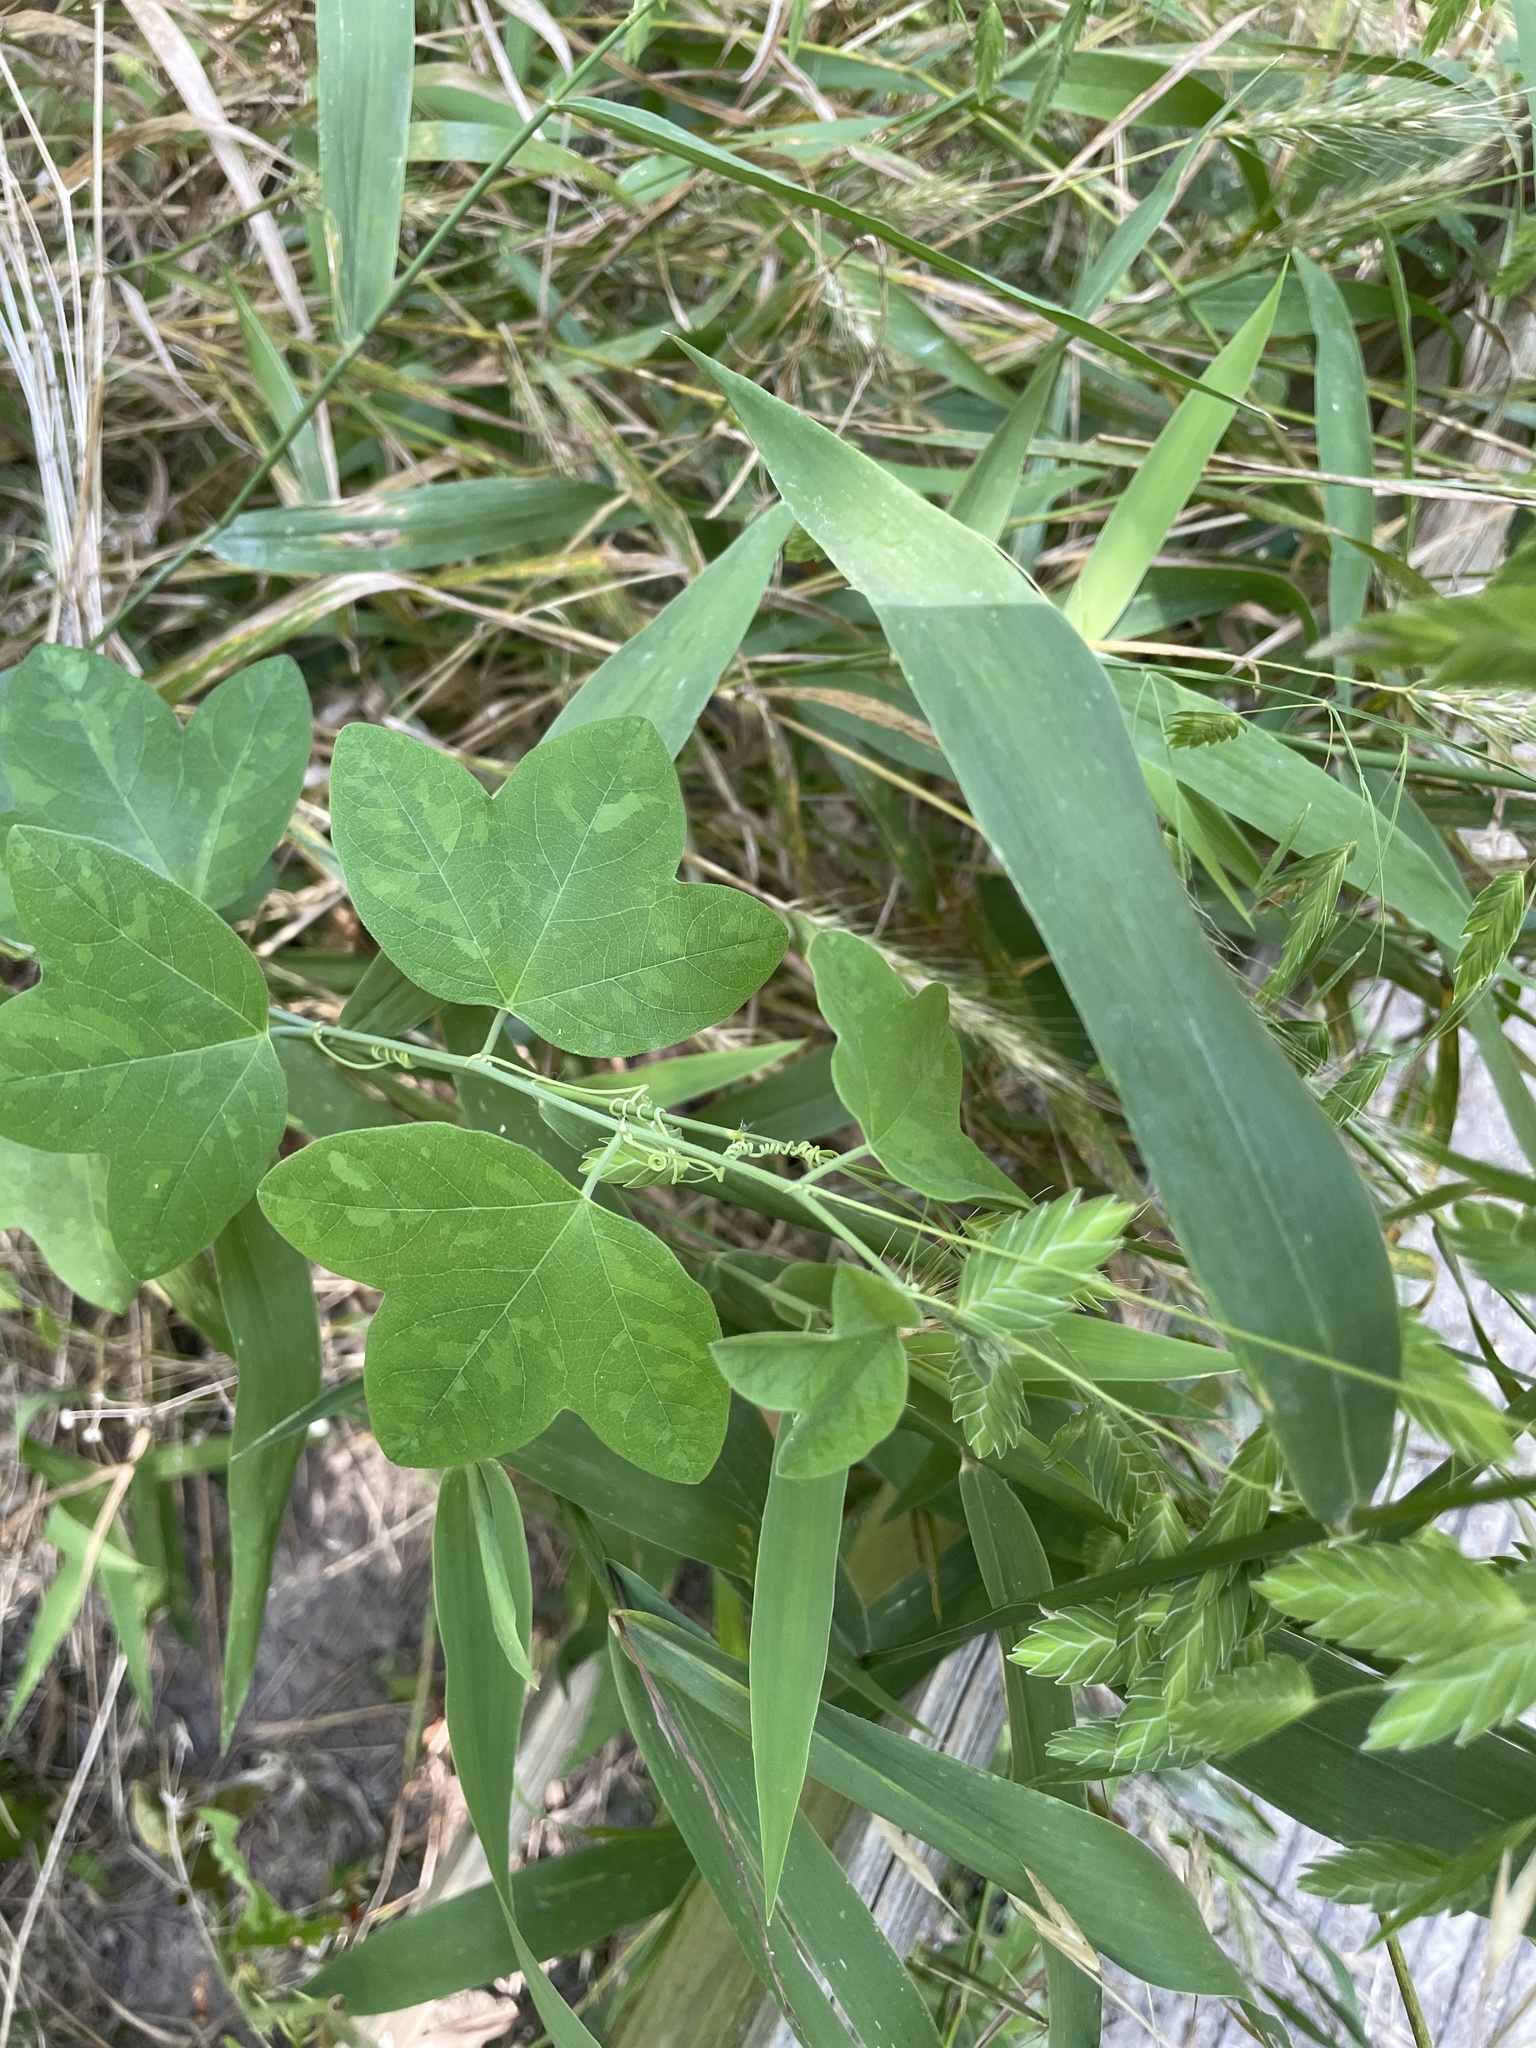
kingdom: Plantae
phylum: Tracheophyta
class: Magnoliopsida
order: Malpighiales
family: Passifloraceae
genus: Passiflora
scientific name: Passiflora lutea
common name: Yellow passionflower
